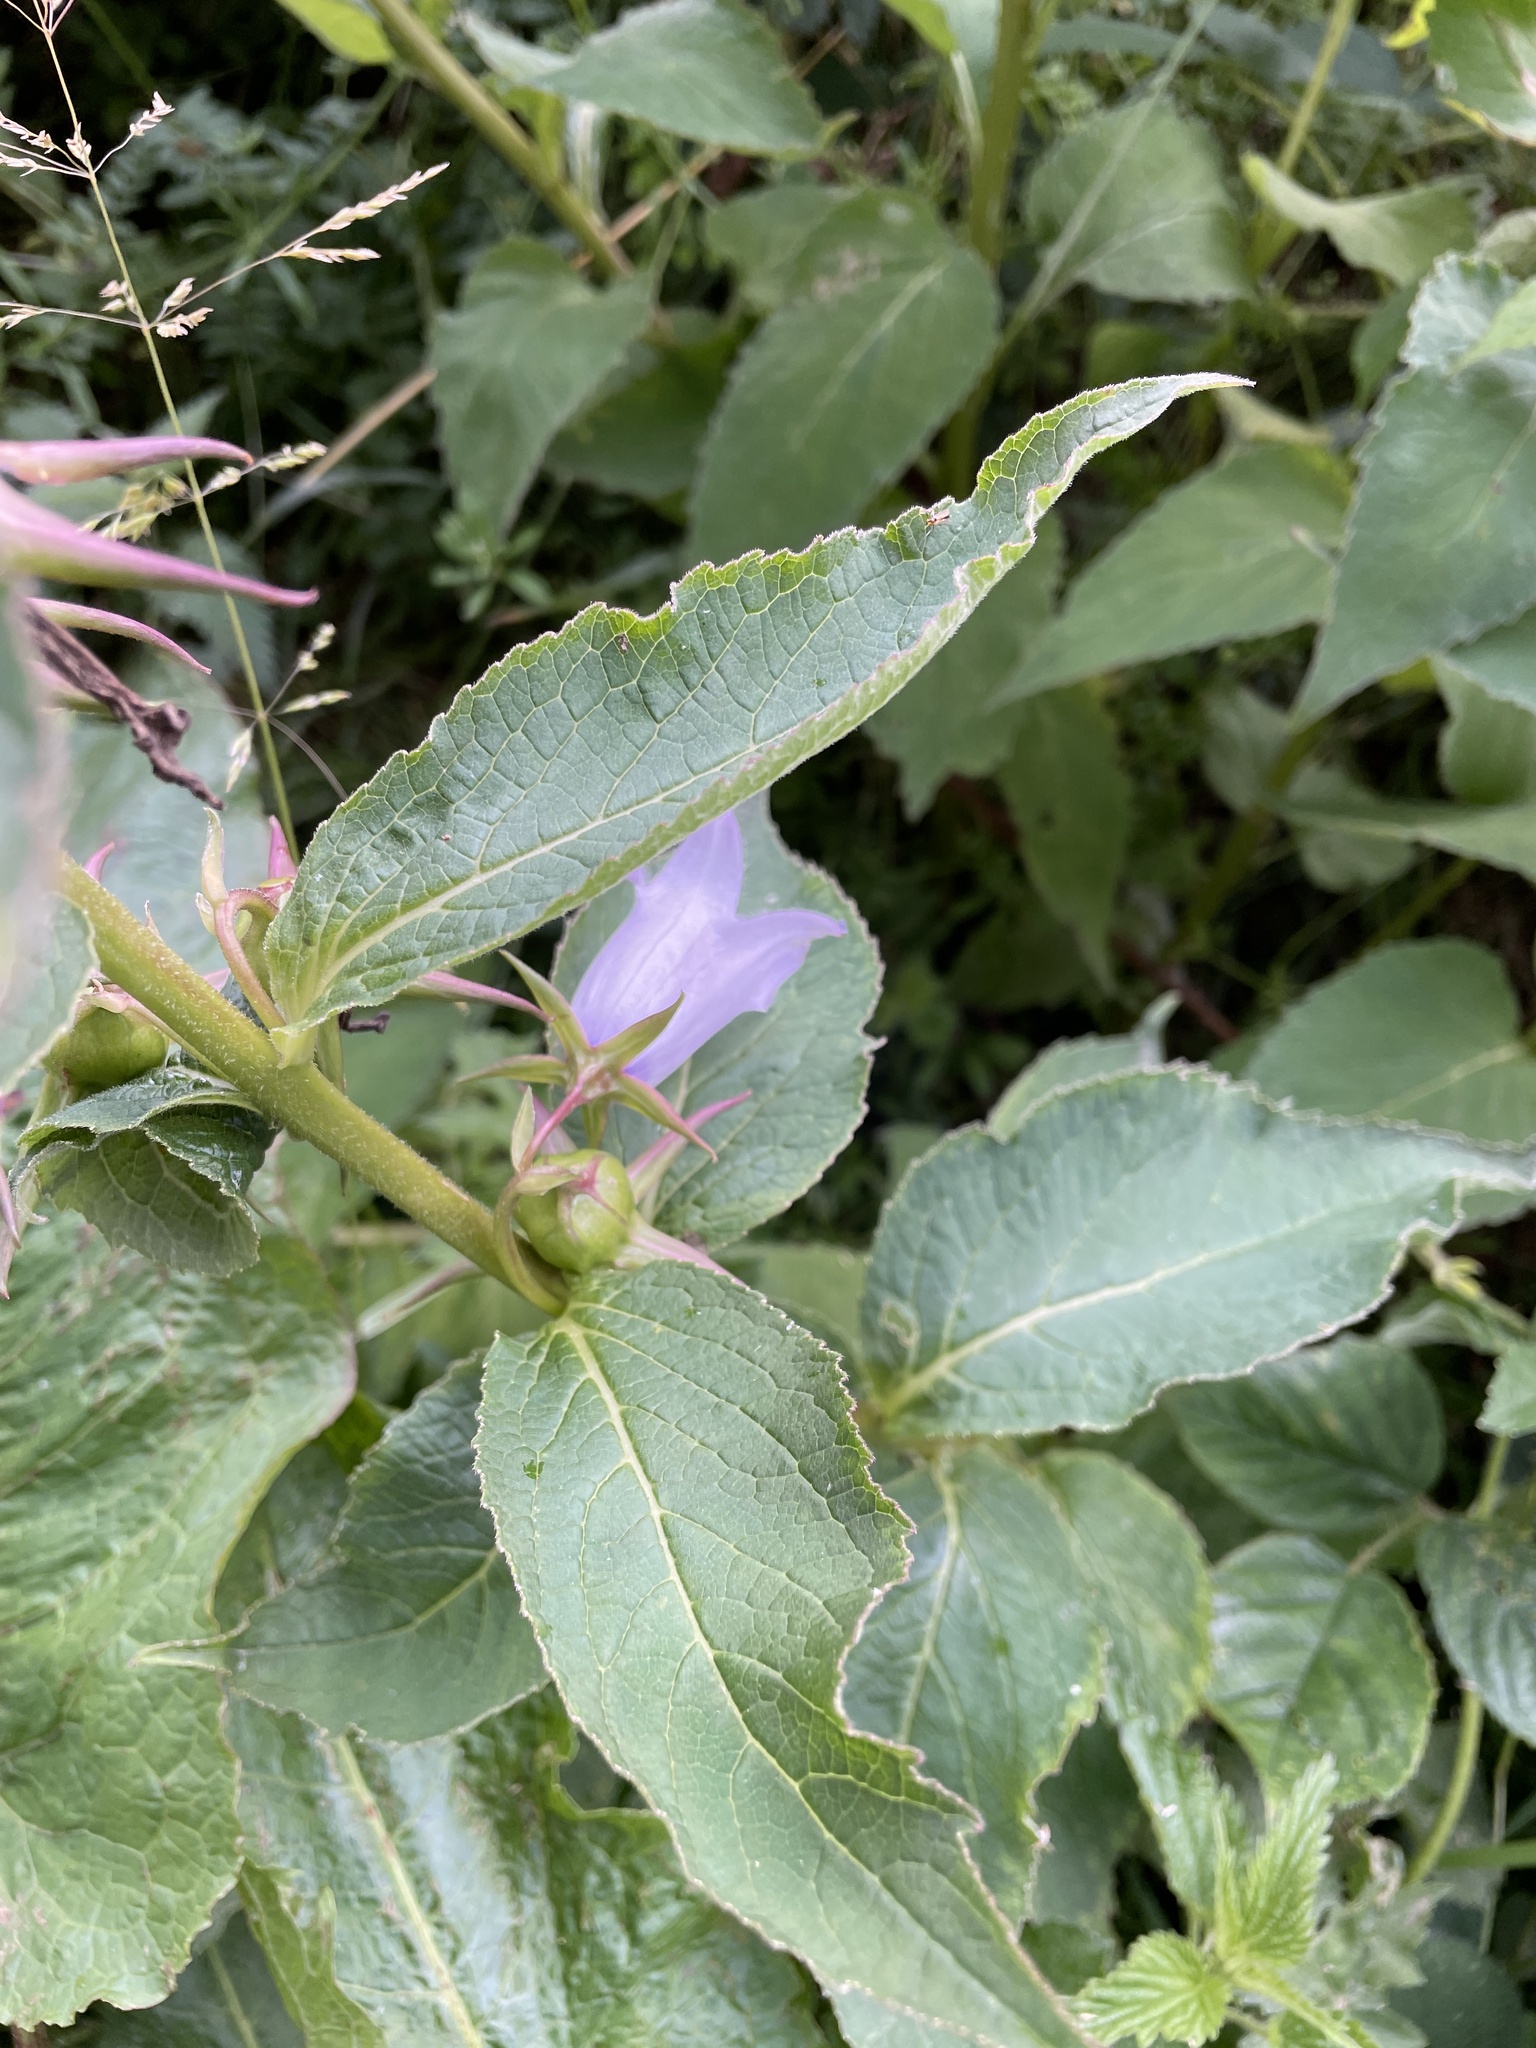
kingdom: Plantae
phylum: Tracheophyta
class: Magnoliopsida
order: Asterales
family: Campanulaceae
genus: Campanula
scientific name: Campanula latifolia
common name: Giant bellflower
